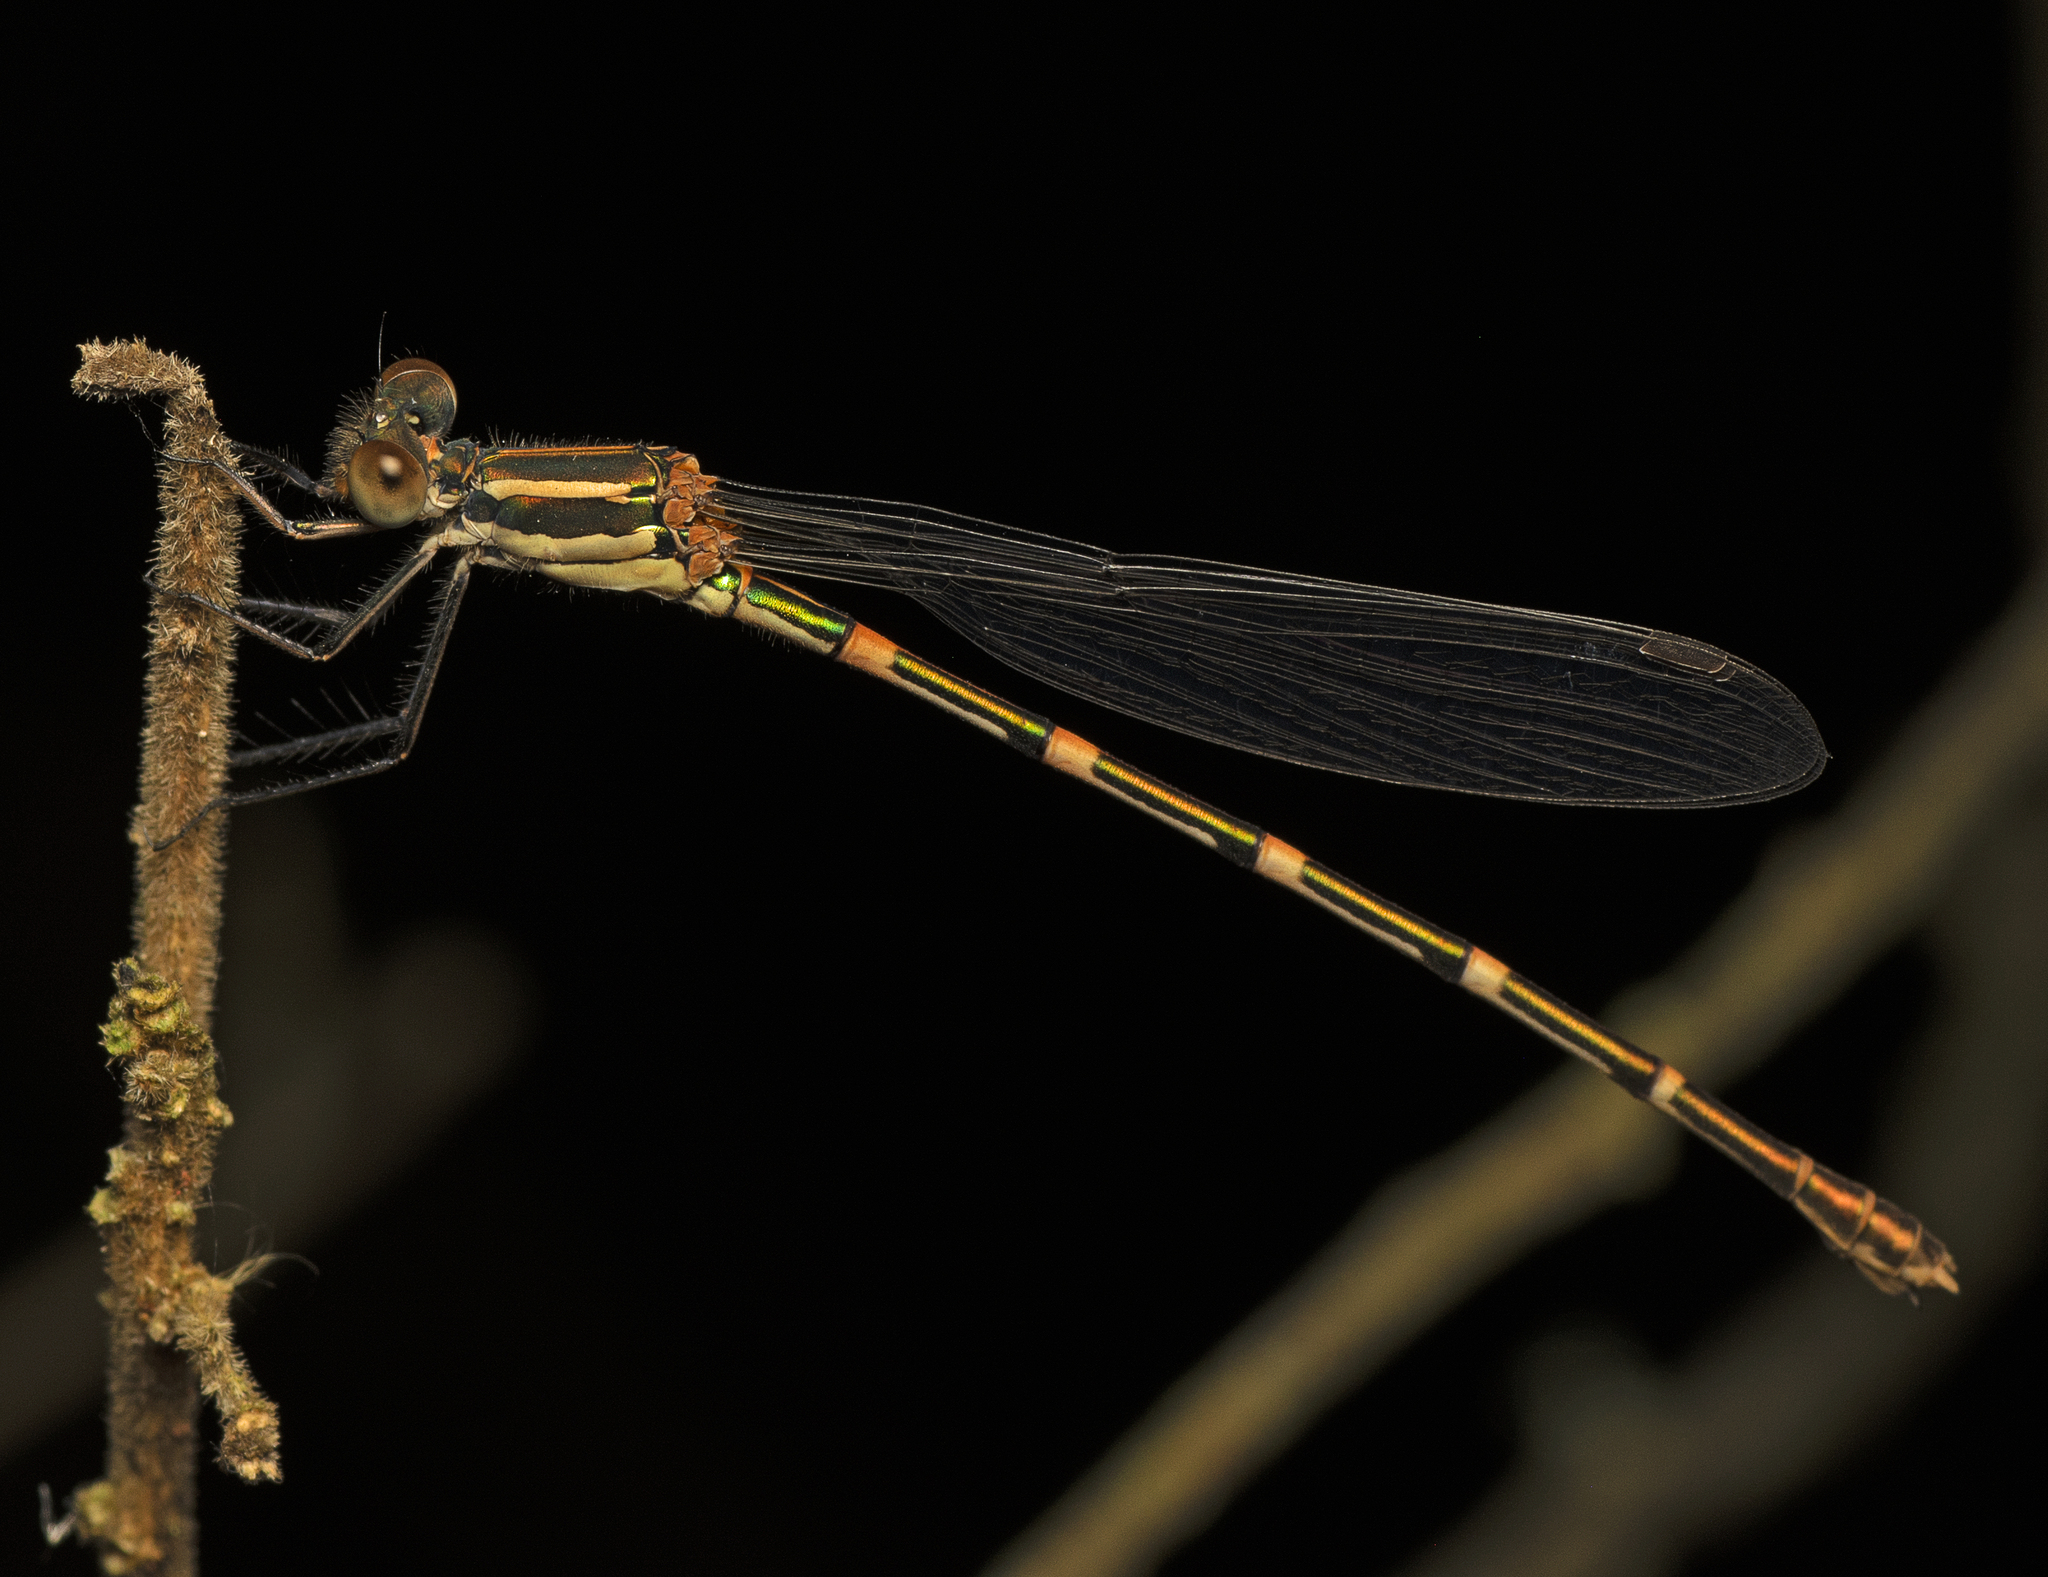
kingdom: Animalia
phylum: Arthropoda
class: Insecta
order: Odonata
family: Lestidae
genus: Austrolestes
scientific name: Austrolestes leda
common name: Wandering ringtail
